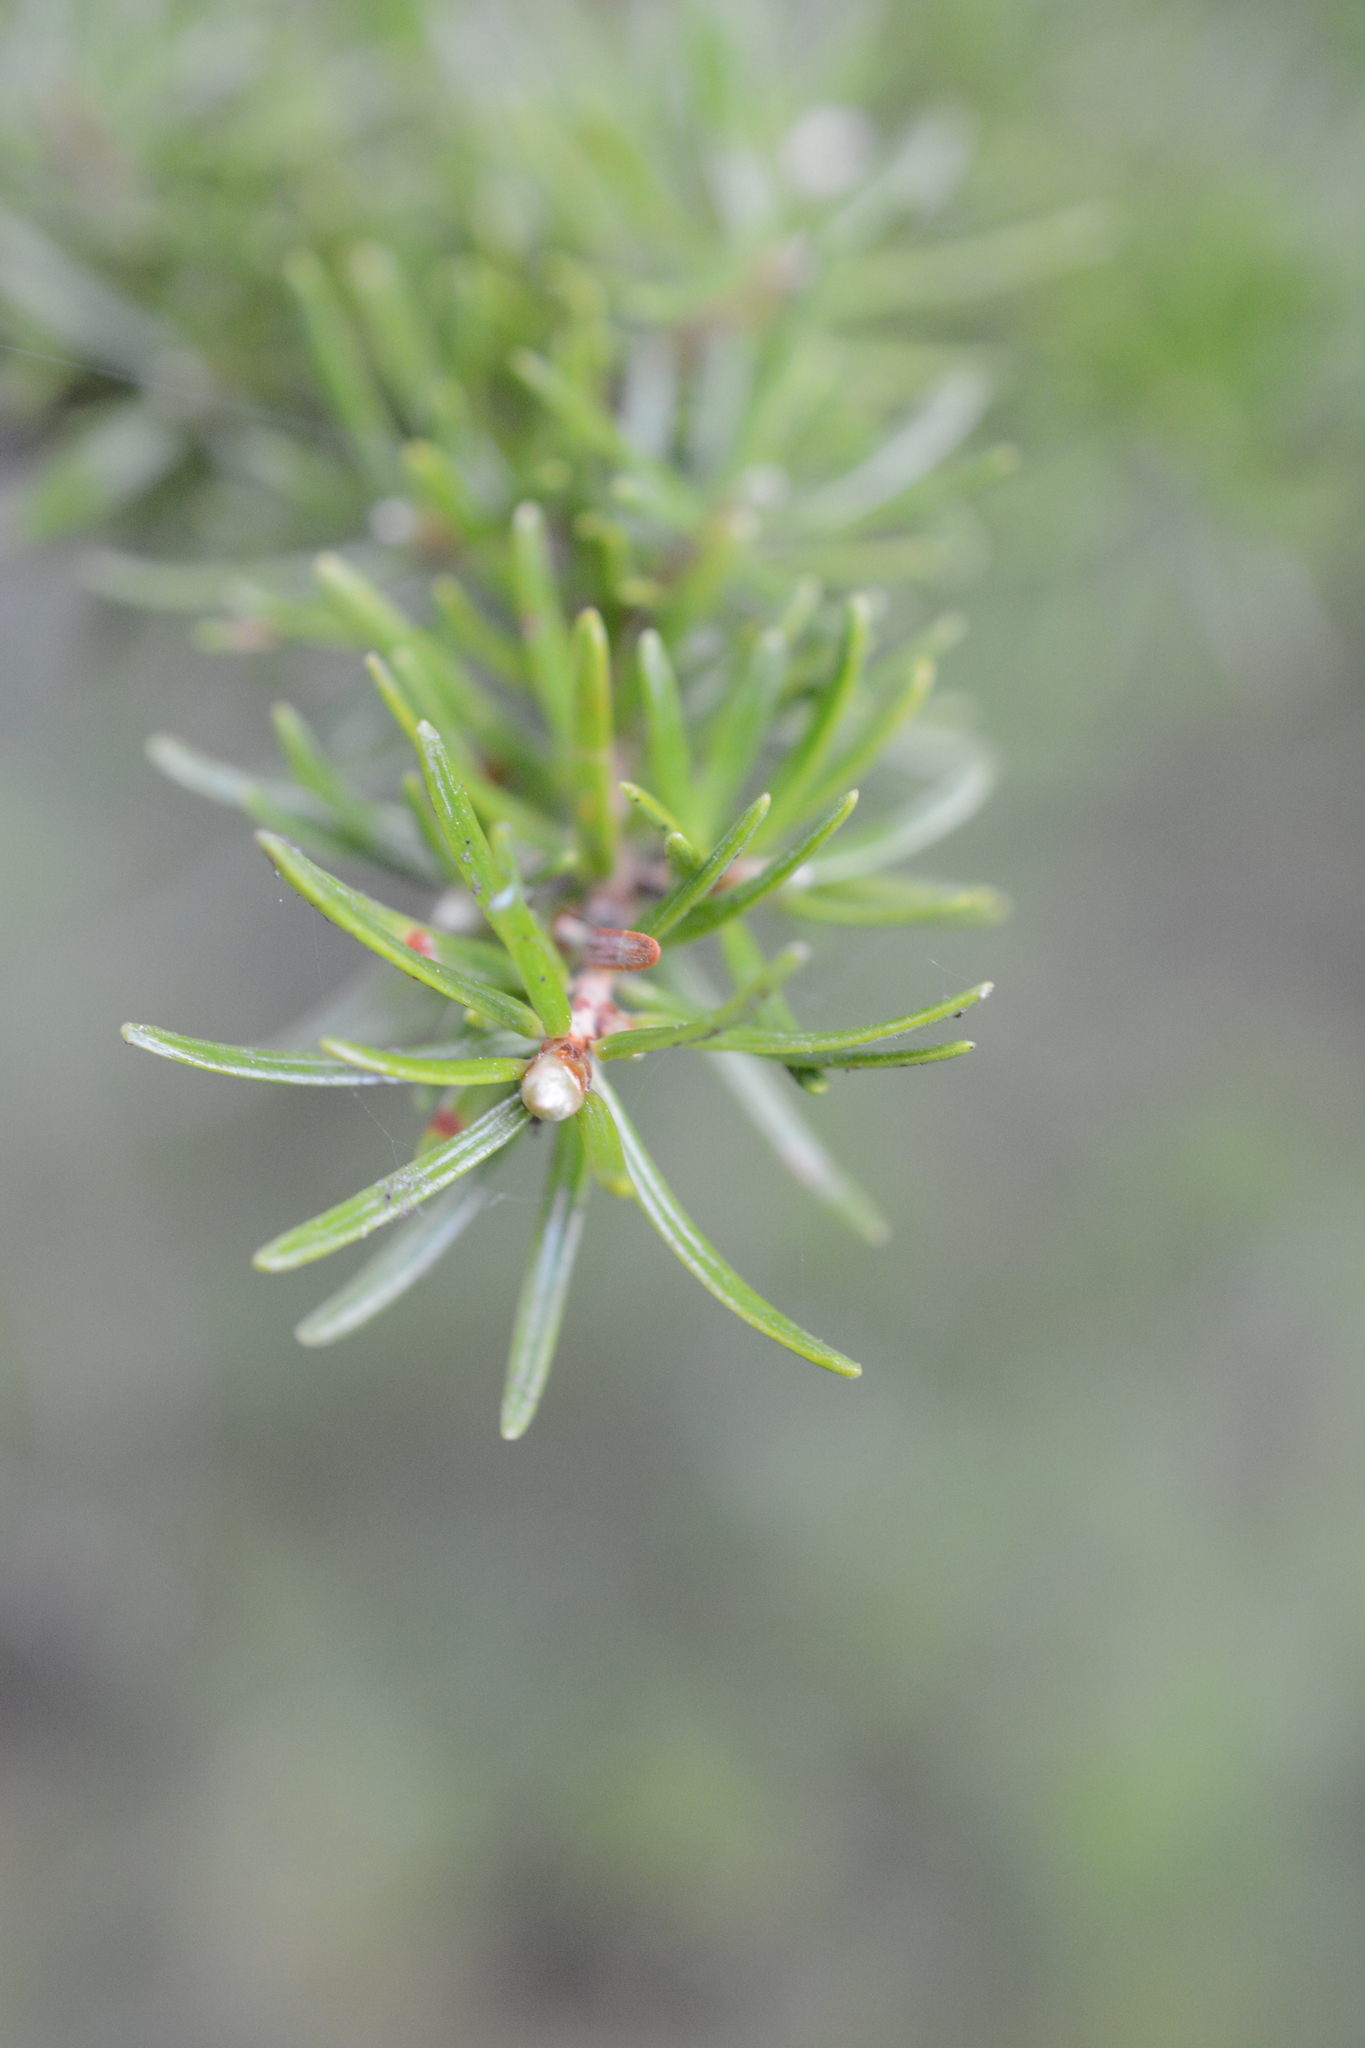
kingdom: Plantae
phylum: Tracheophyta
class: Pinopsida
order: Pinales
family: Pinaceae
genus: Tsuga
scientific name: Tsuga mertensiana
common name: Mountain hemlock
